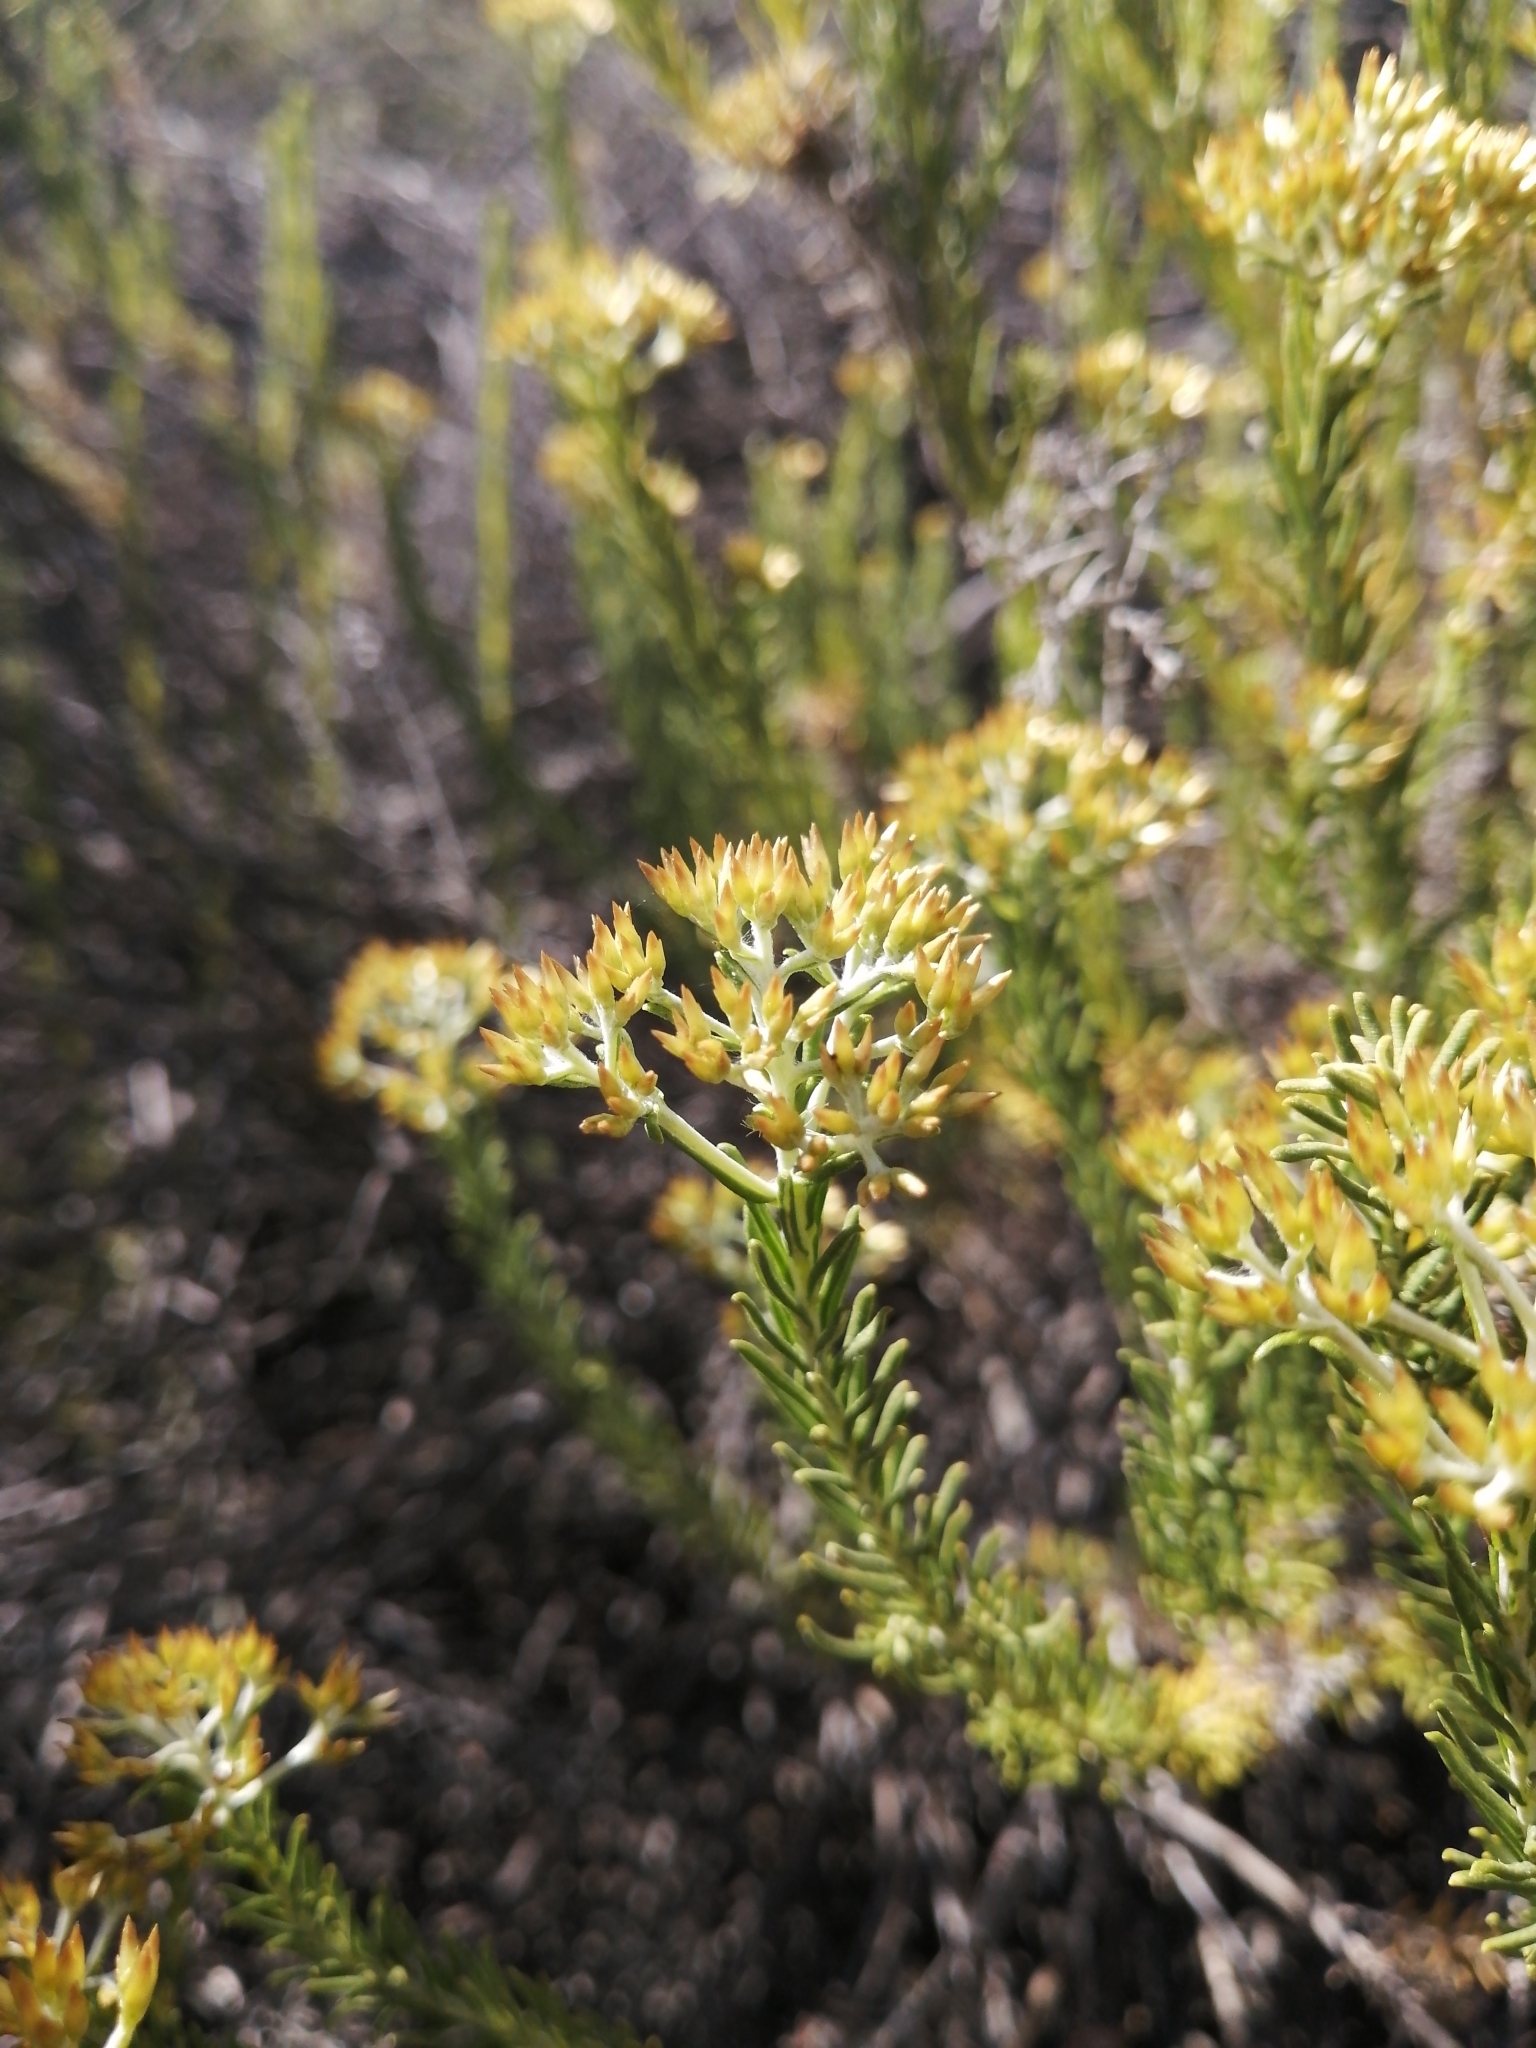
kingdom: Plantae
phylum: Tracheophyta
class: Magnoliopsida
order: Asterales
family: Asteraceae
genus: Helichrysum
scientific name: Helichrysum hamulosum
